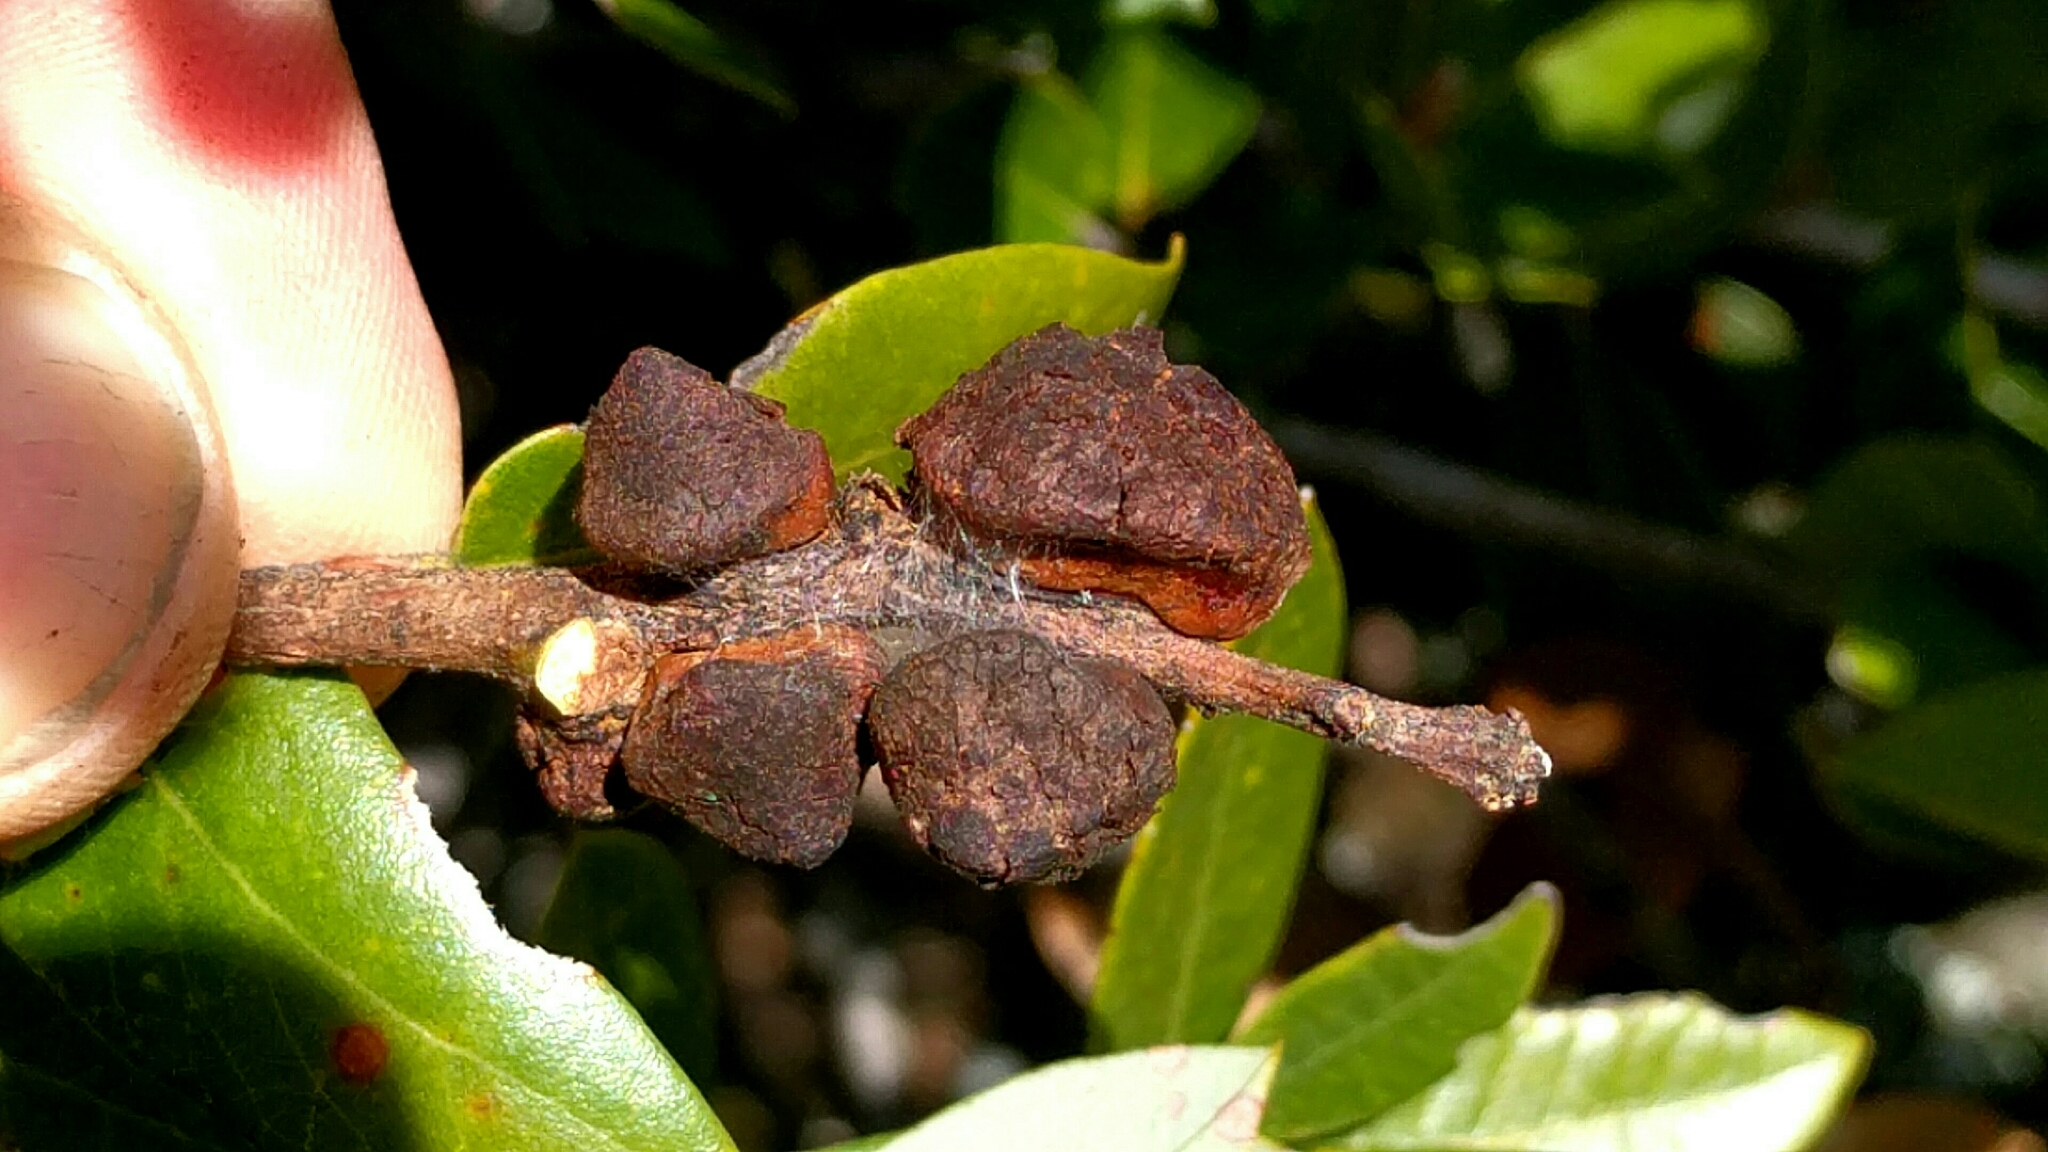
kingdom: Animalia
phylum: Arthropoda
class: Insecta
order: Hymenoptera
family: Cynipidae
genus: Disholandricus
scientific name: Disholandricus
